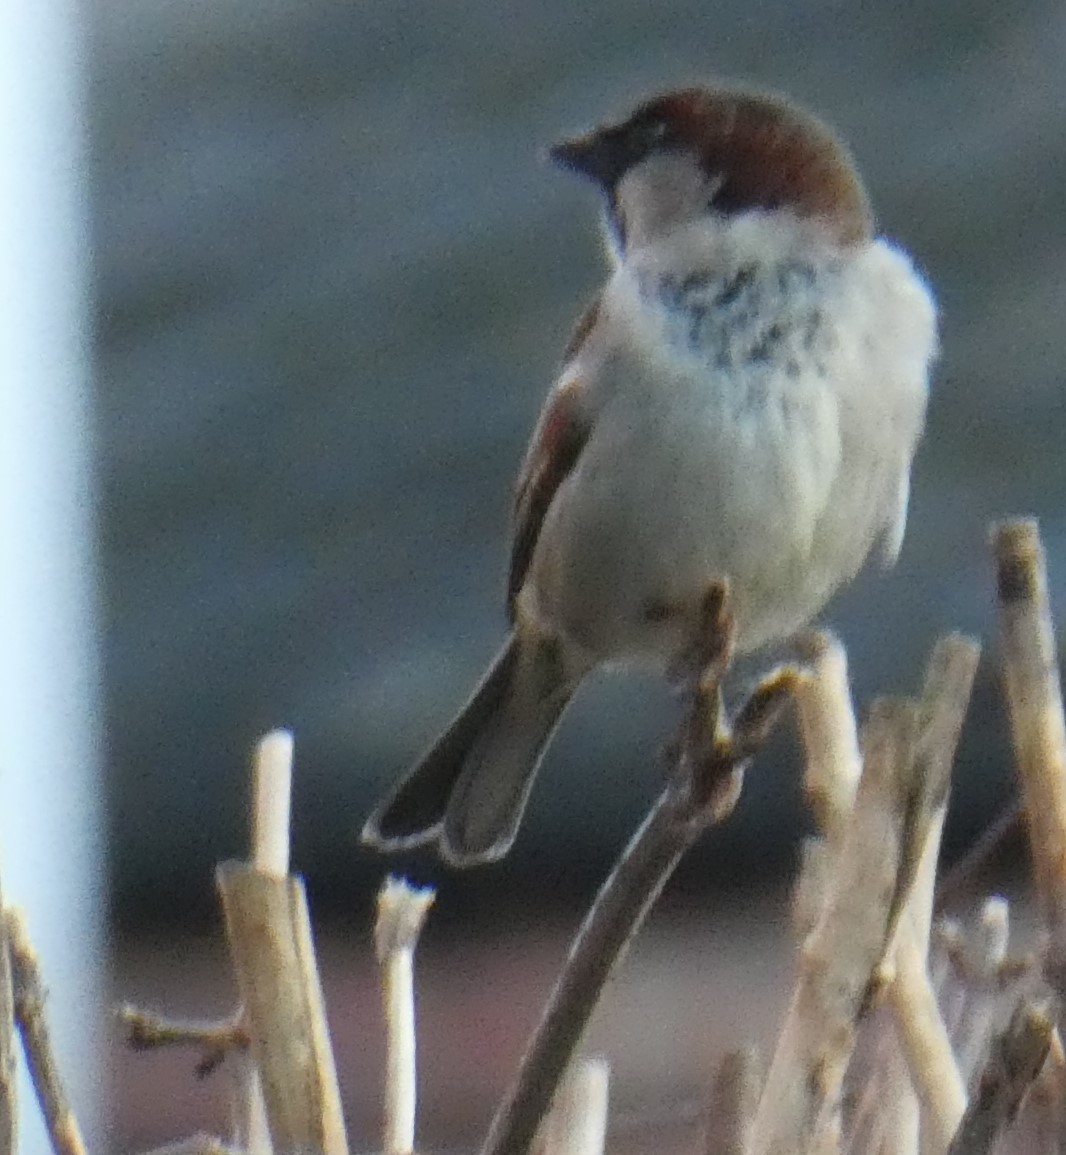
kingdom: Animalia
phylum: Chordata
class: Aves
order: Passeriformes
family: Passeridae
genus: Passer
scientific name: Passer domesticus
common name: House sparrow
